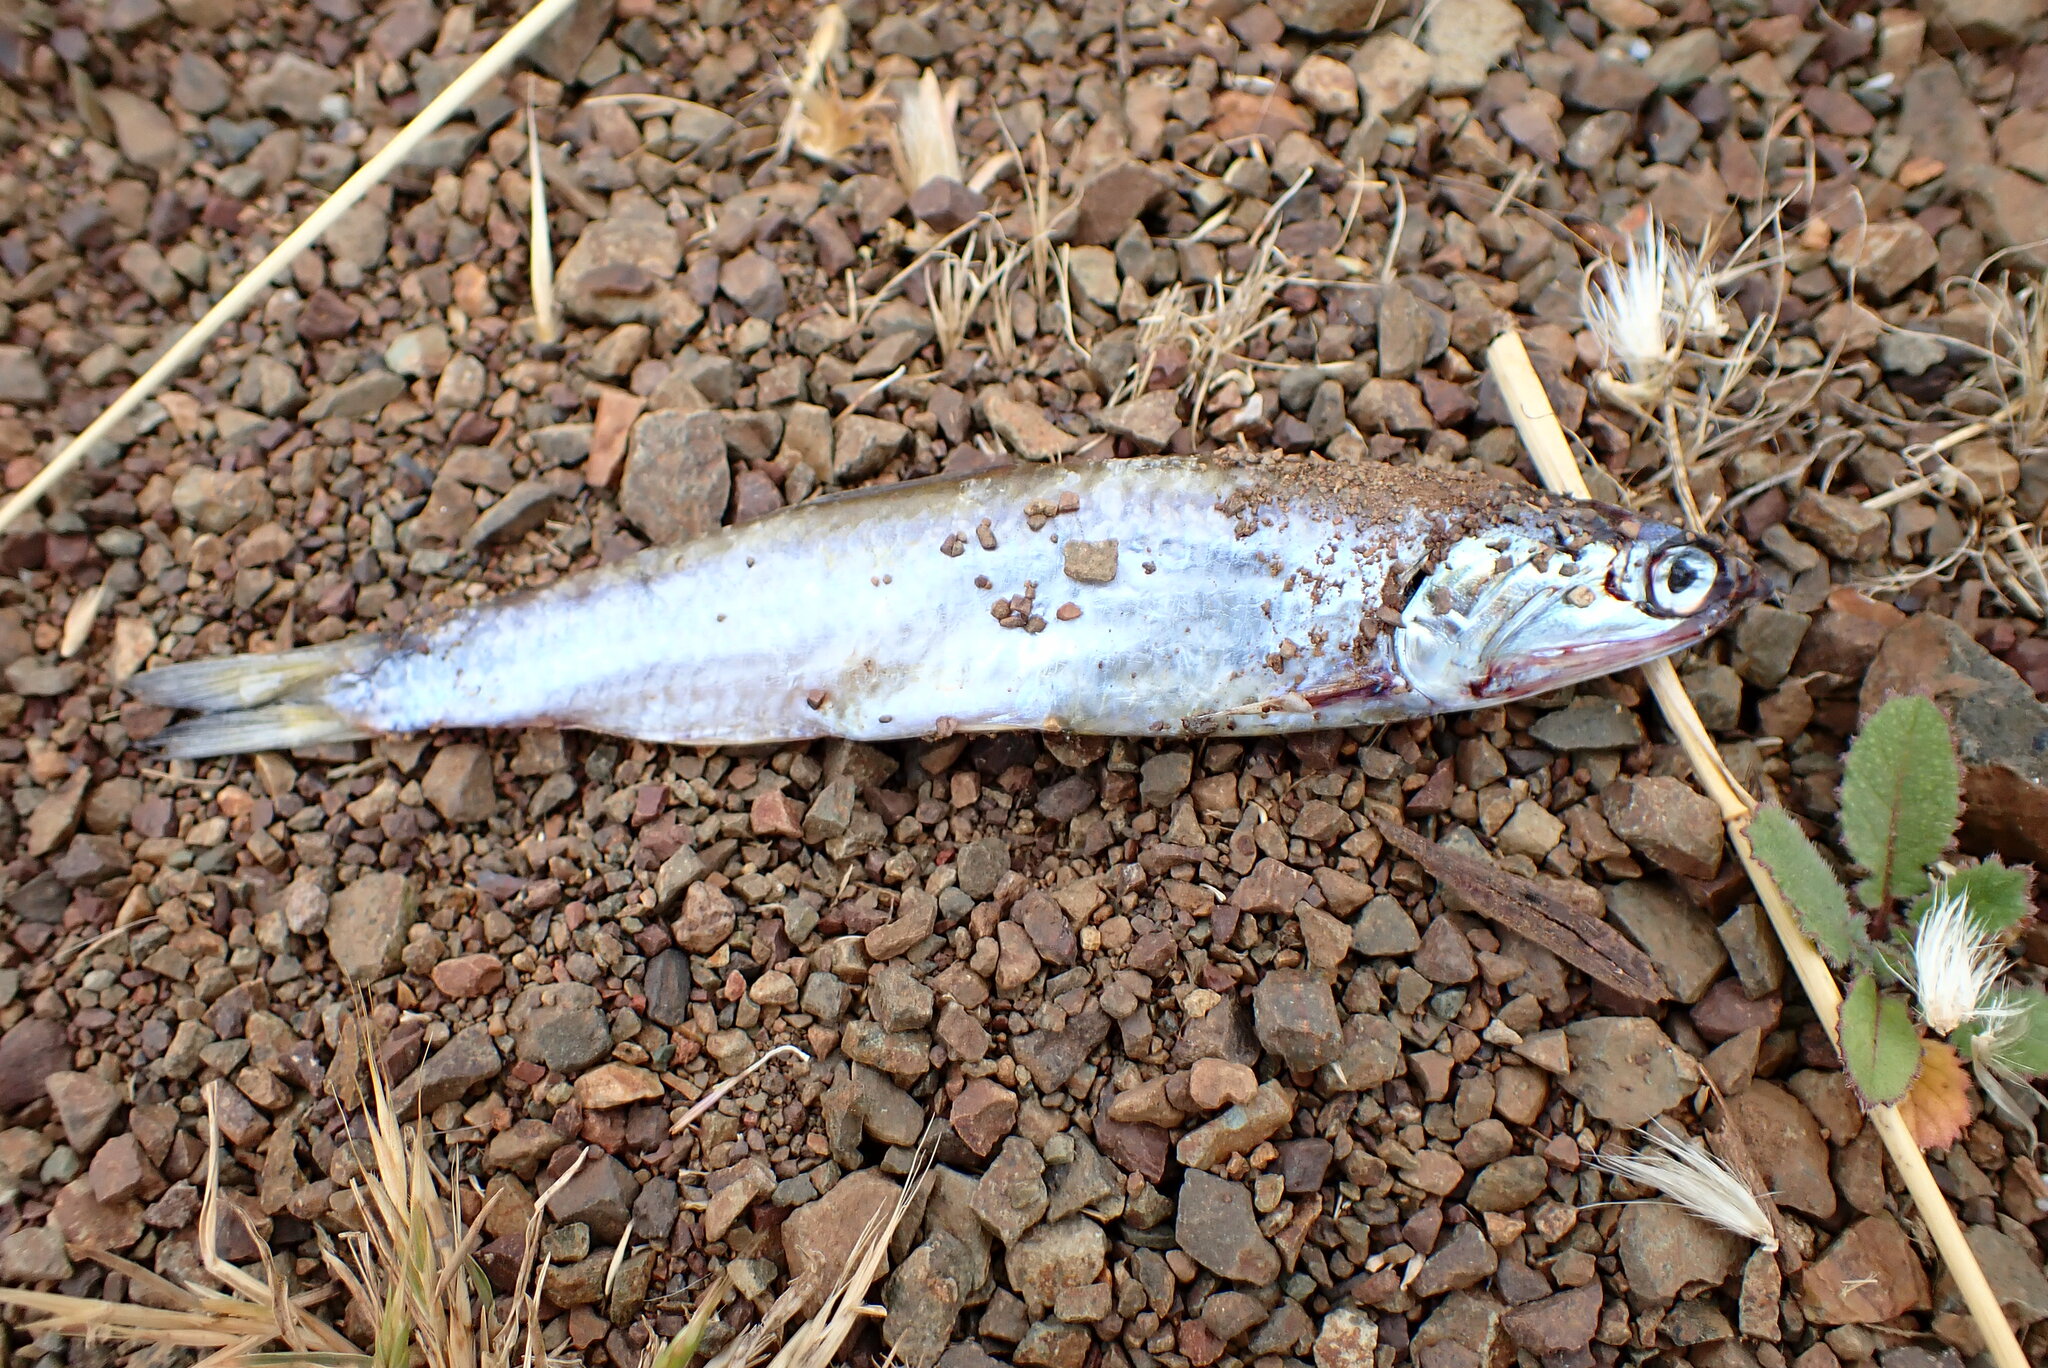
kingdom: Animalia
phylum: Chordata
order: Clupeiformes
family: Engraulidae
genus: Engraulis
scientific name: Engraulis mordax
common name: Northern anchovy
